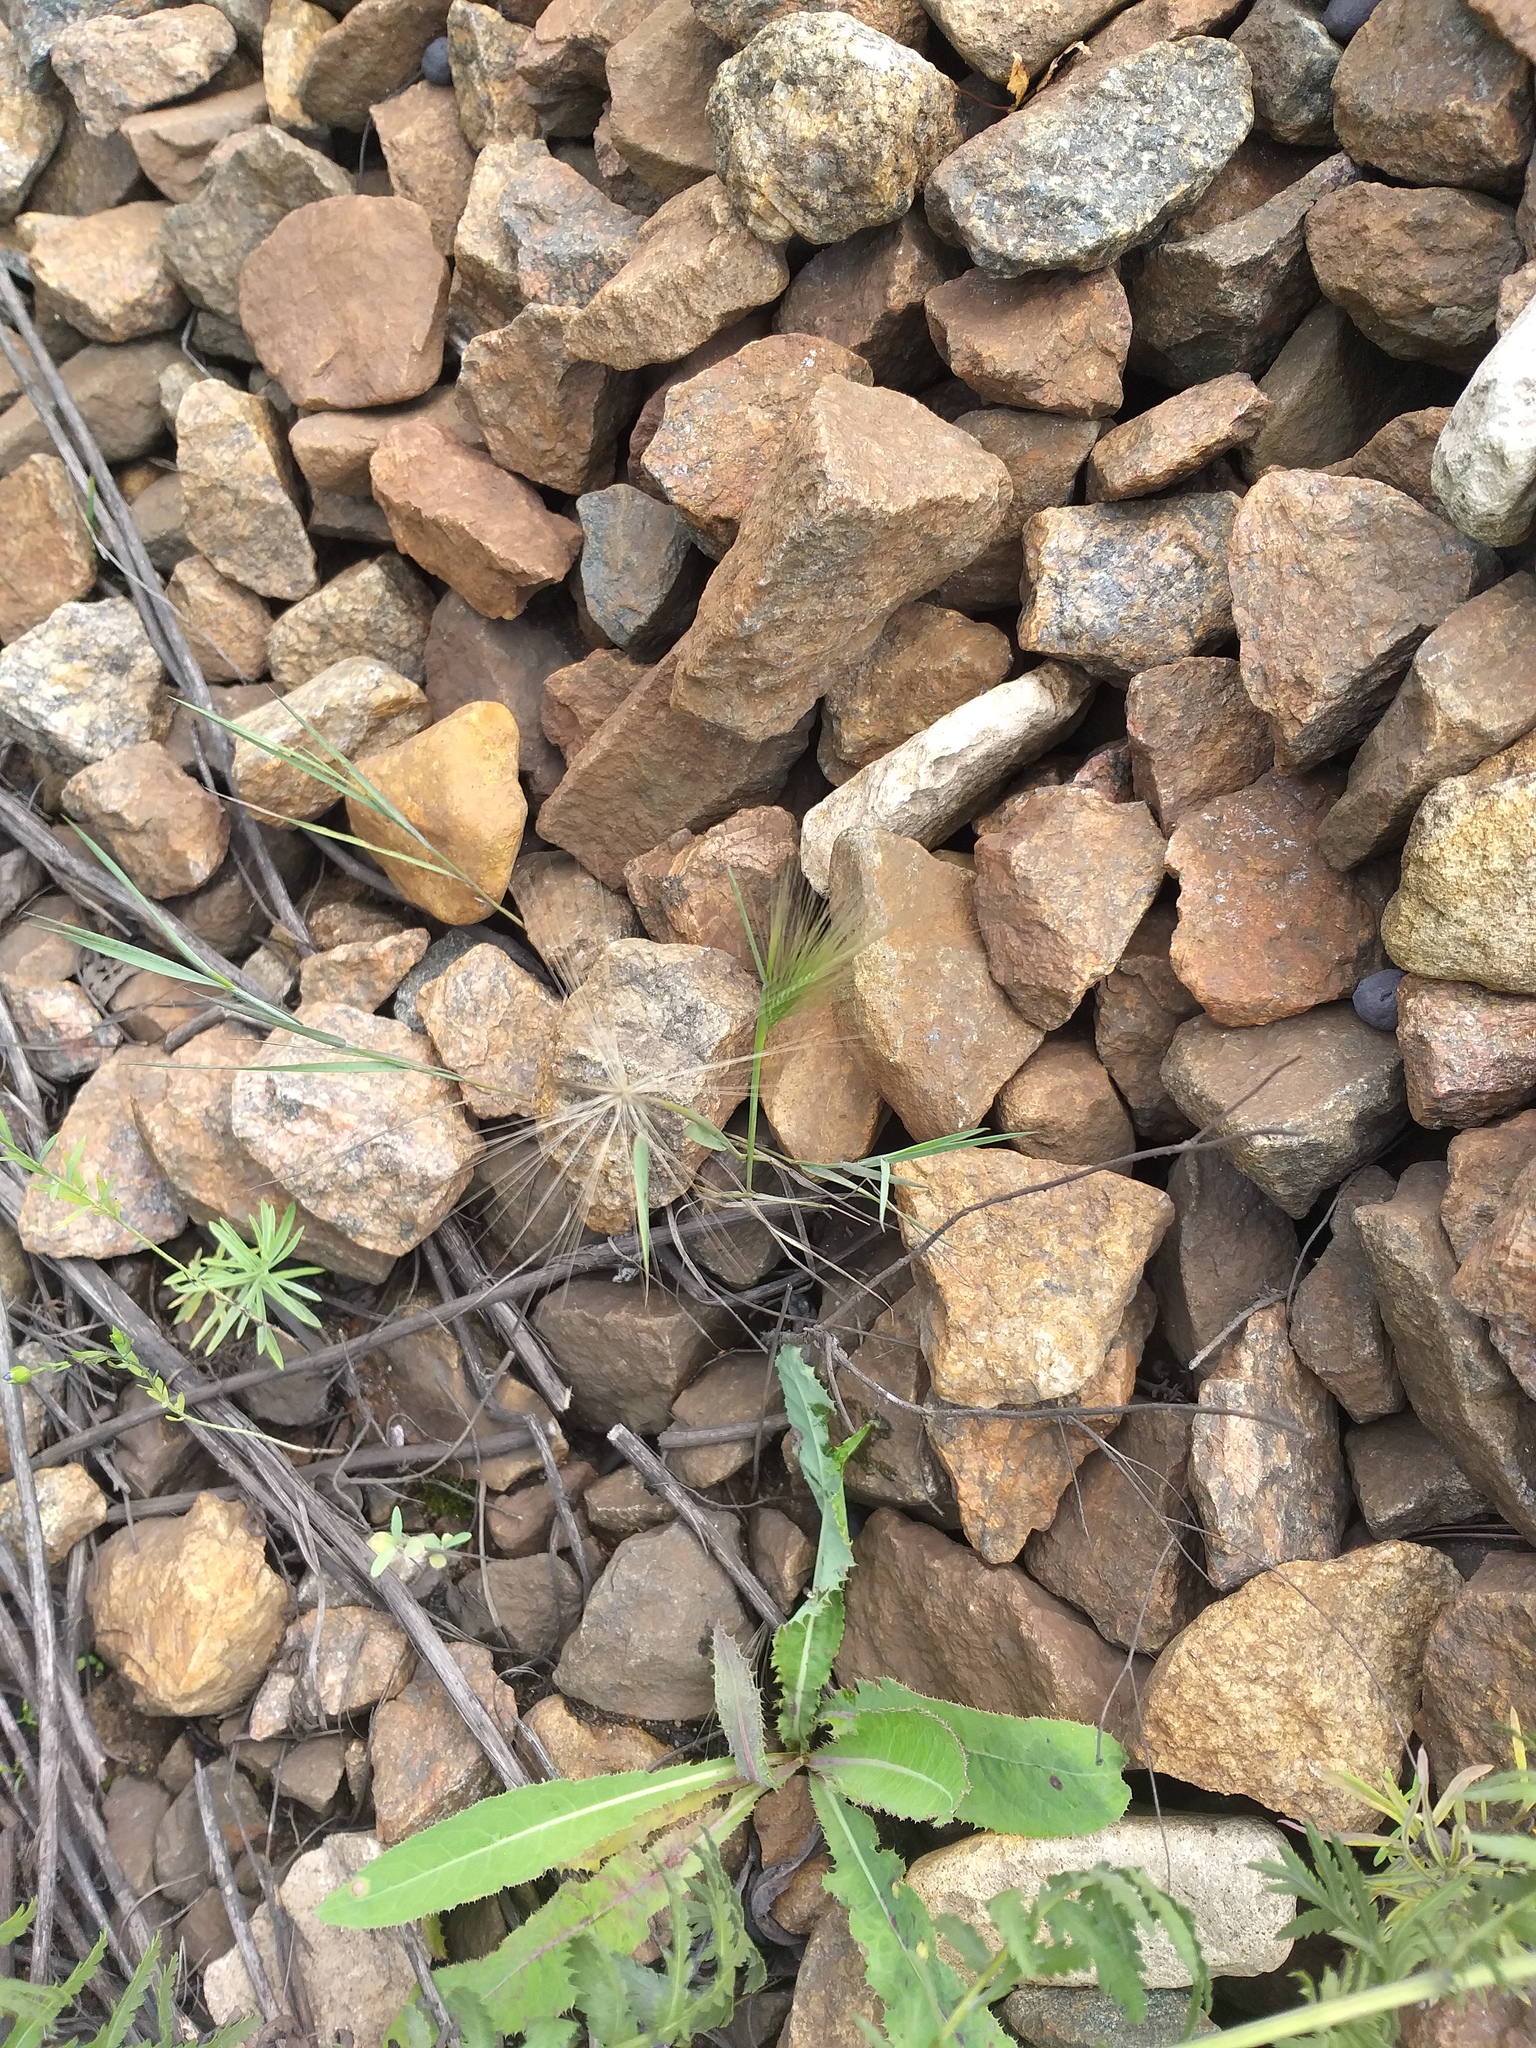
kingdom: Plantae
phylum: Tracheophyta
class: Liliopsida
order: Poales
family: Poaceae
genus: Hordeum
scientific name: Hordeum jubatum
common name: Foxtail barley
